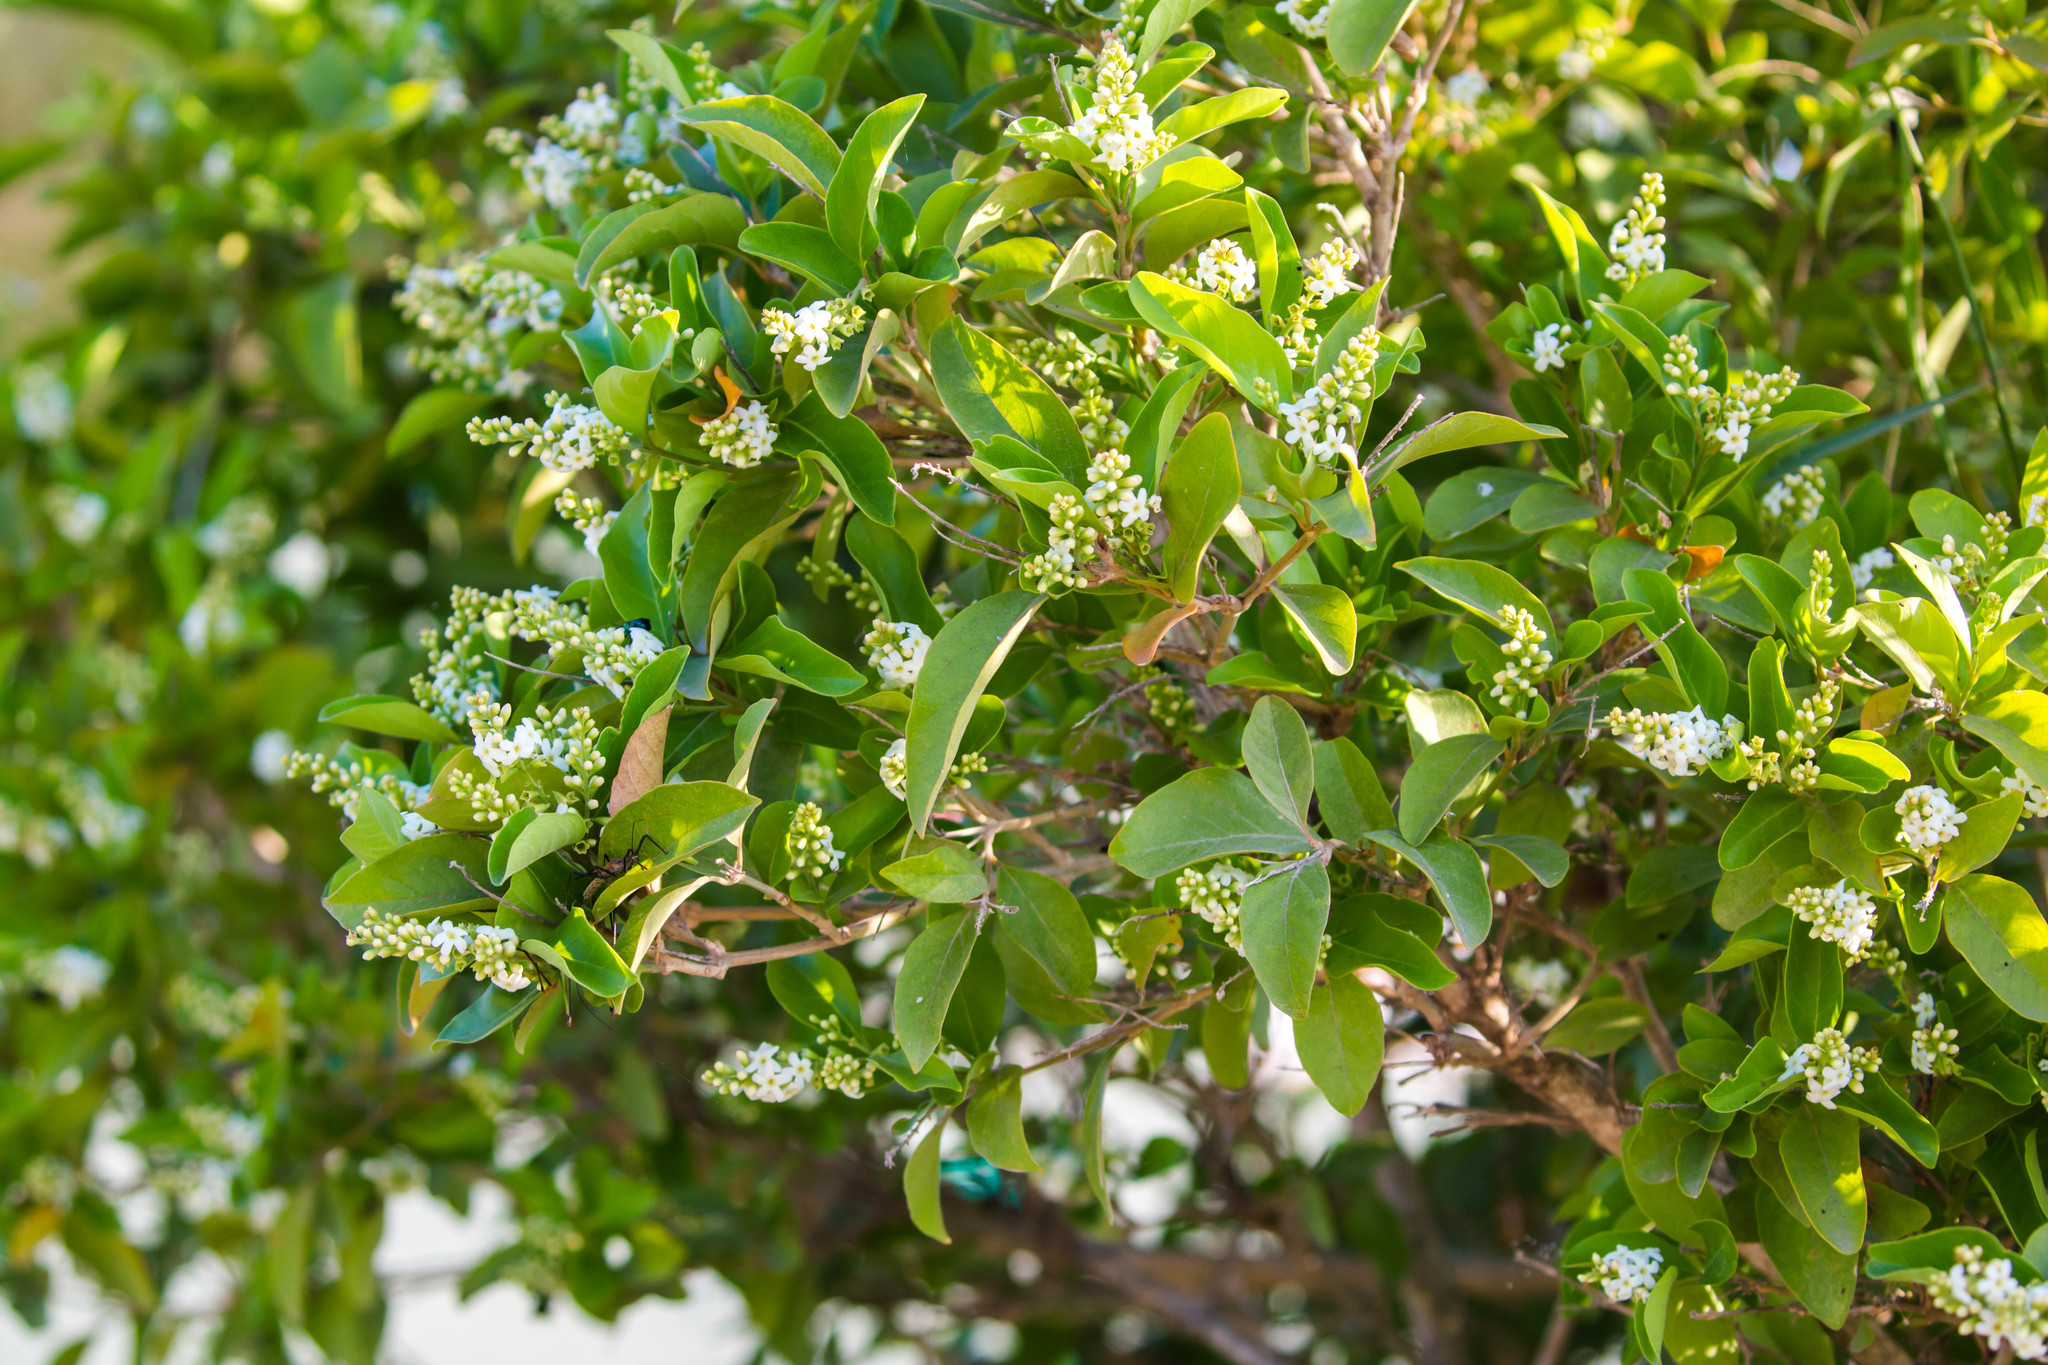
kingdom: Plantae
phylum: Tracheophyta
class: Magnoliopsida
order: Lamiales
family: Verbenaceae
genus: Citharexylum
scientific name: Citharexylum berlandieri
